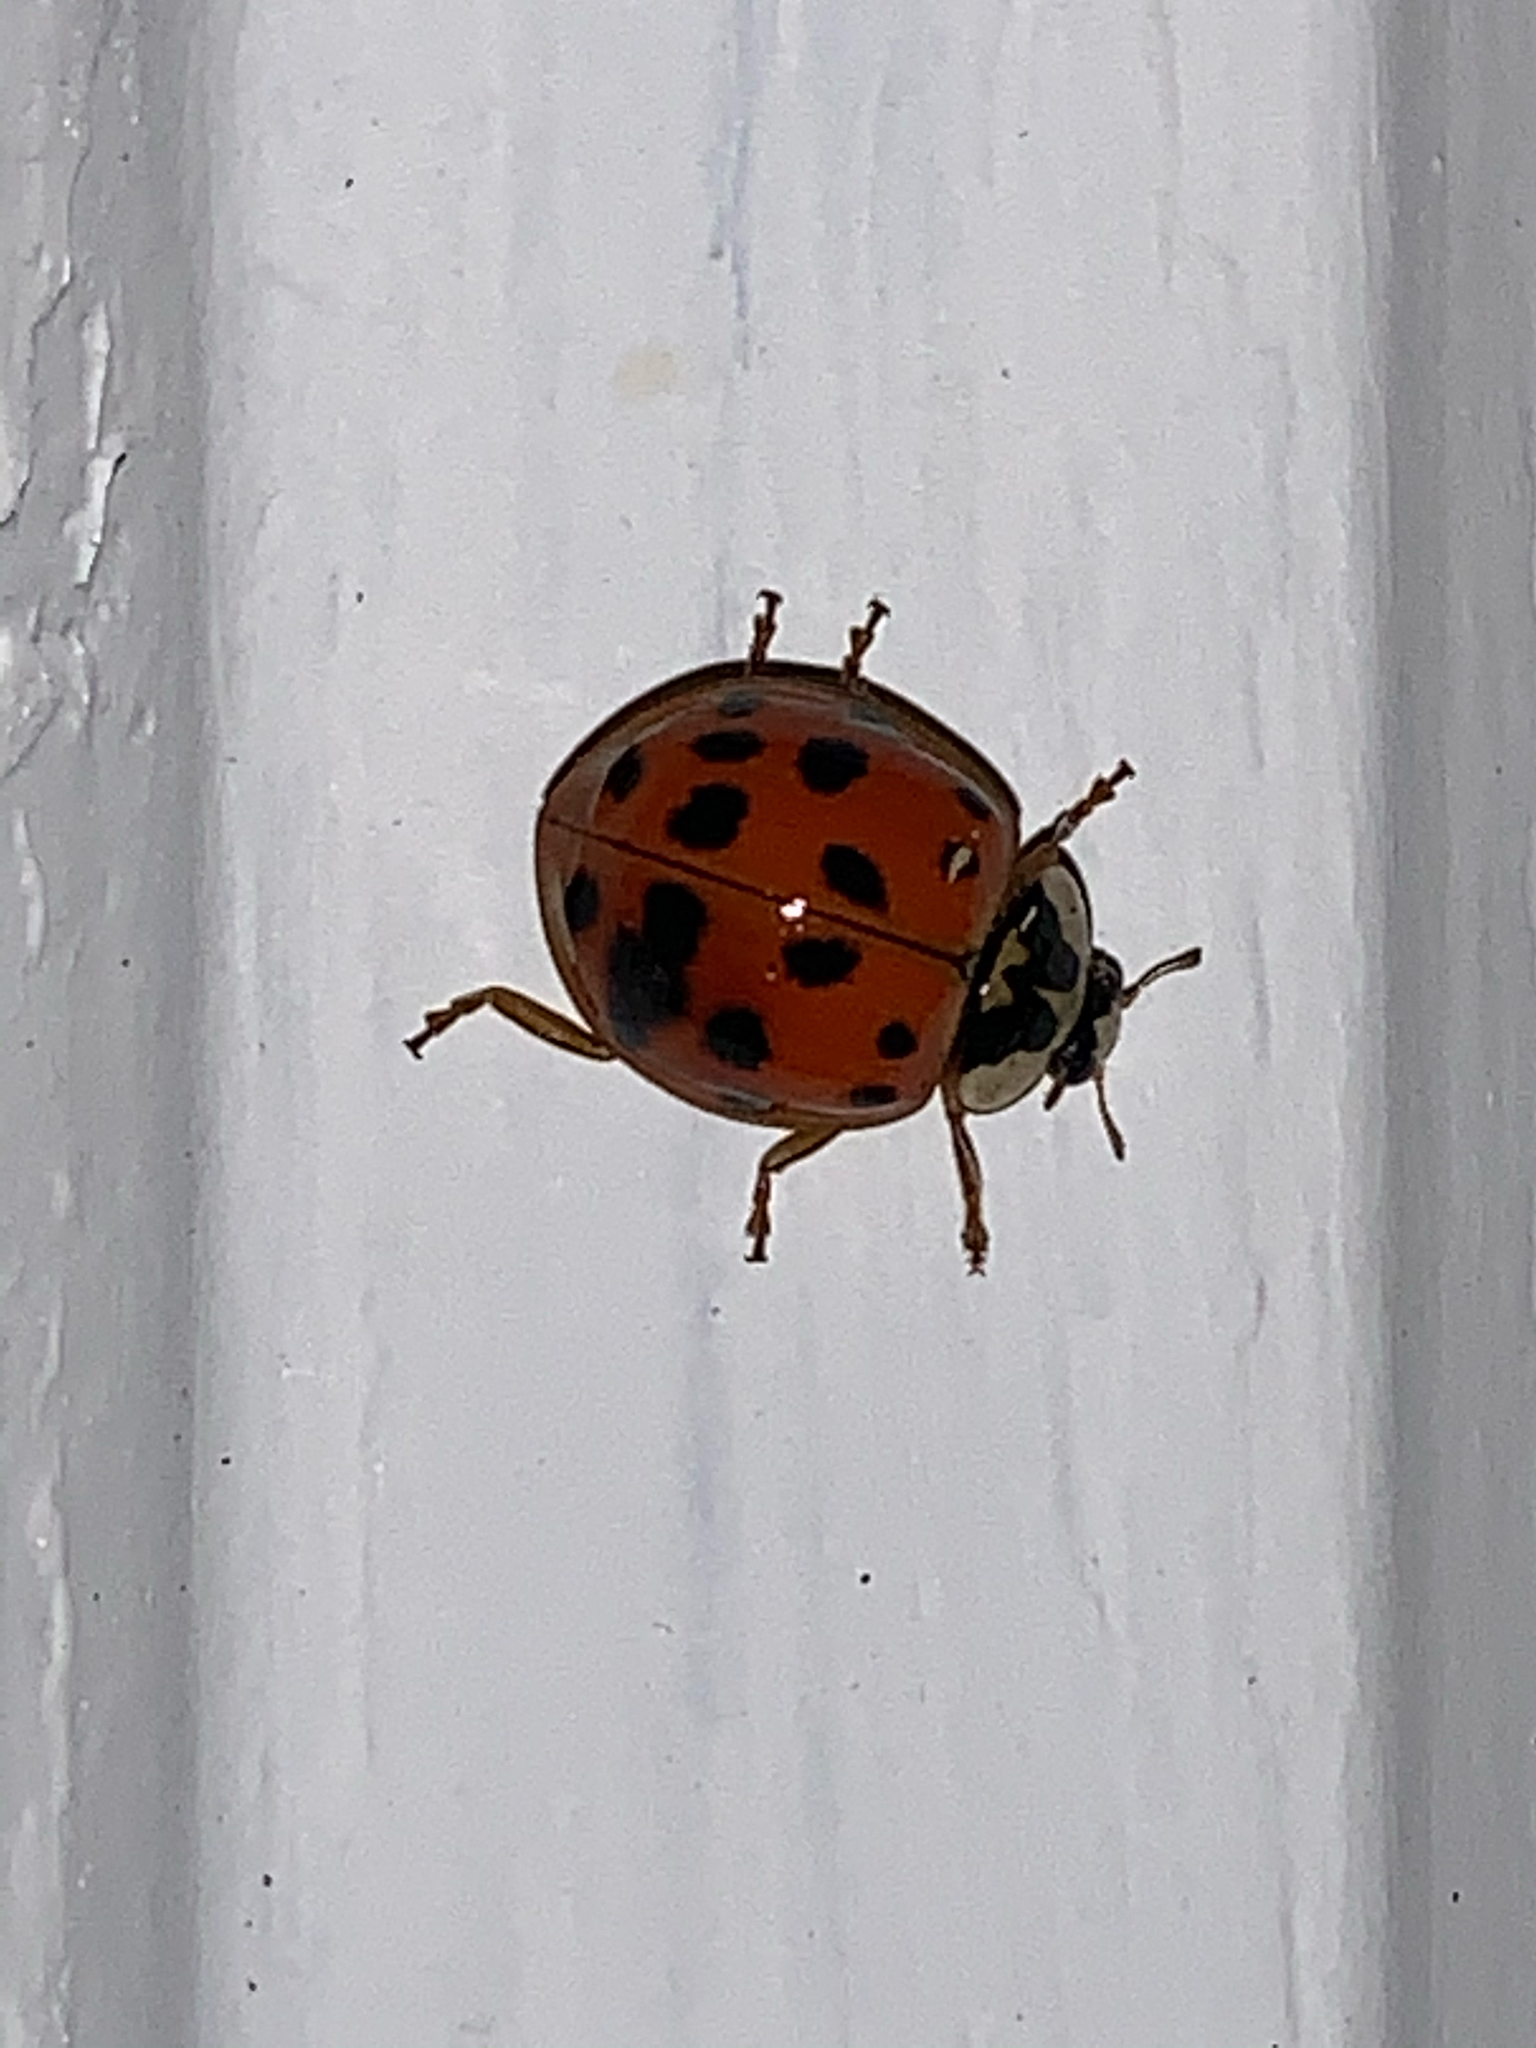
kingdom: Animalia
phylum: Arthropoda
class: Insecta
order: Coleoptera
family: Coccinellidae
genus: Harmonia
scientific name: Harmonia axyridis
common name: Harlequin ladybird
